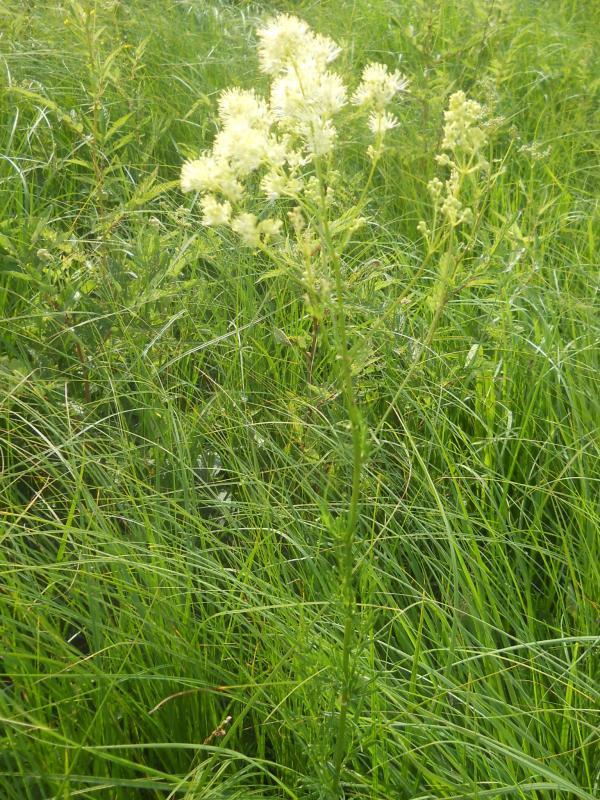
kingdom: Plantae
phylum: Tracheophyta
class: Magnoliopsida
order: Ranunculales
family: Ranunculaceae
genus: Thalictrum
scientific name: Thalictrum lucidum
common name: Shining meadow-rue
